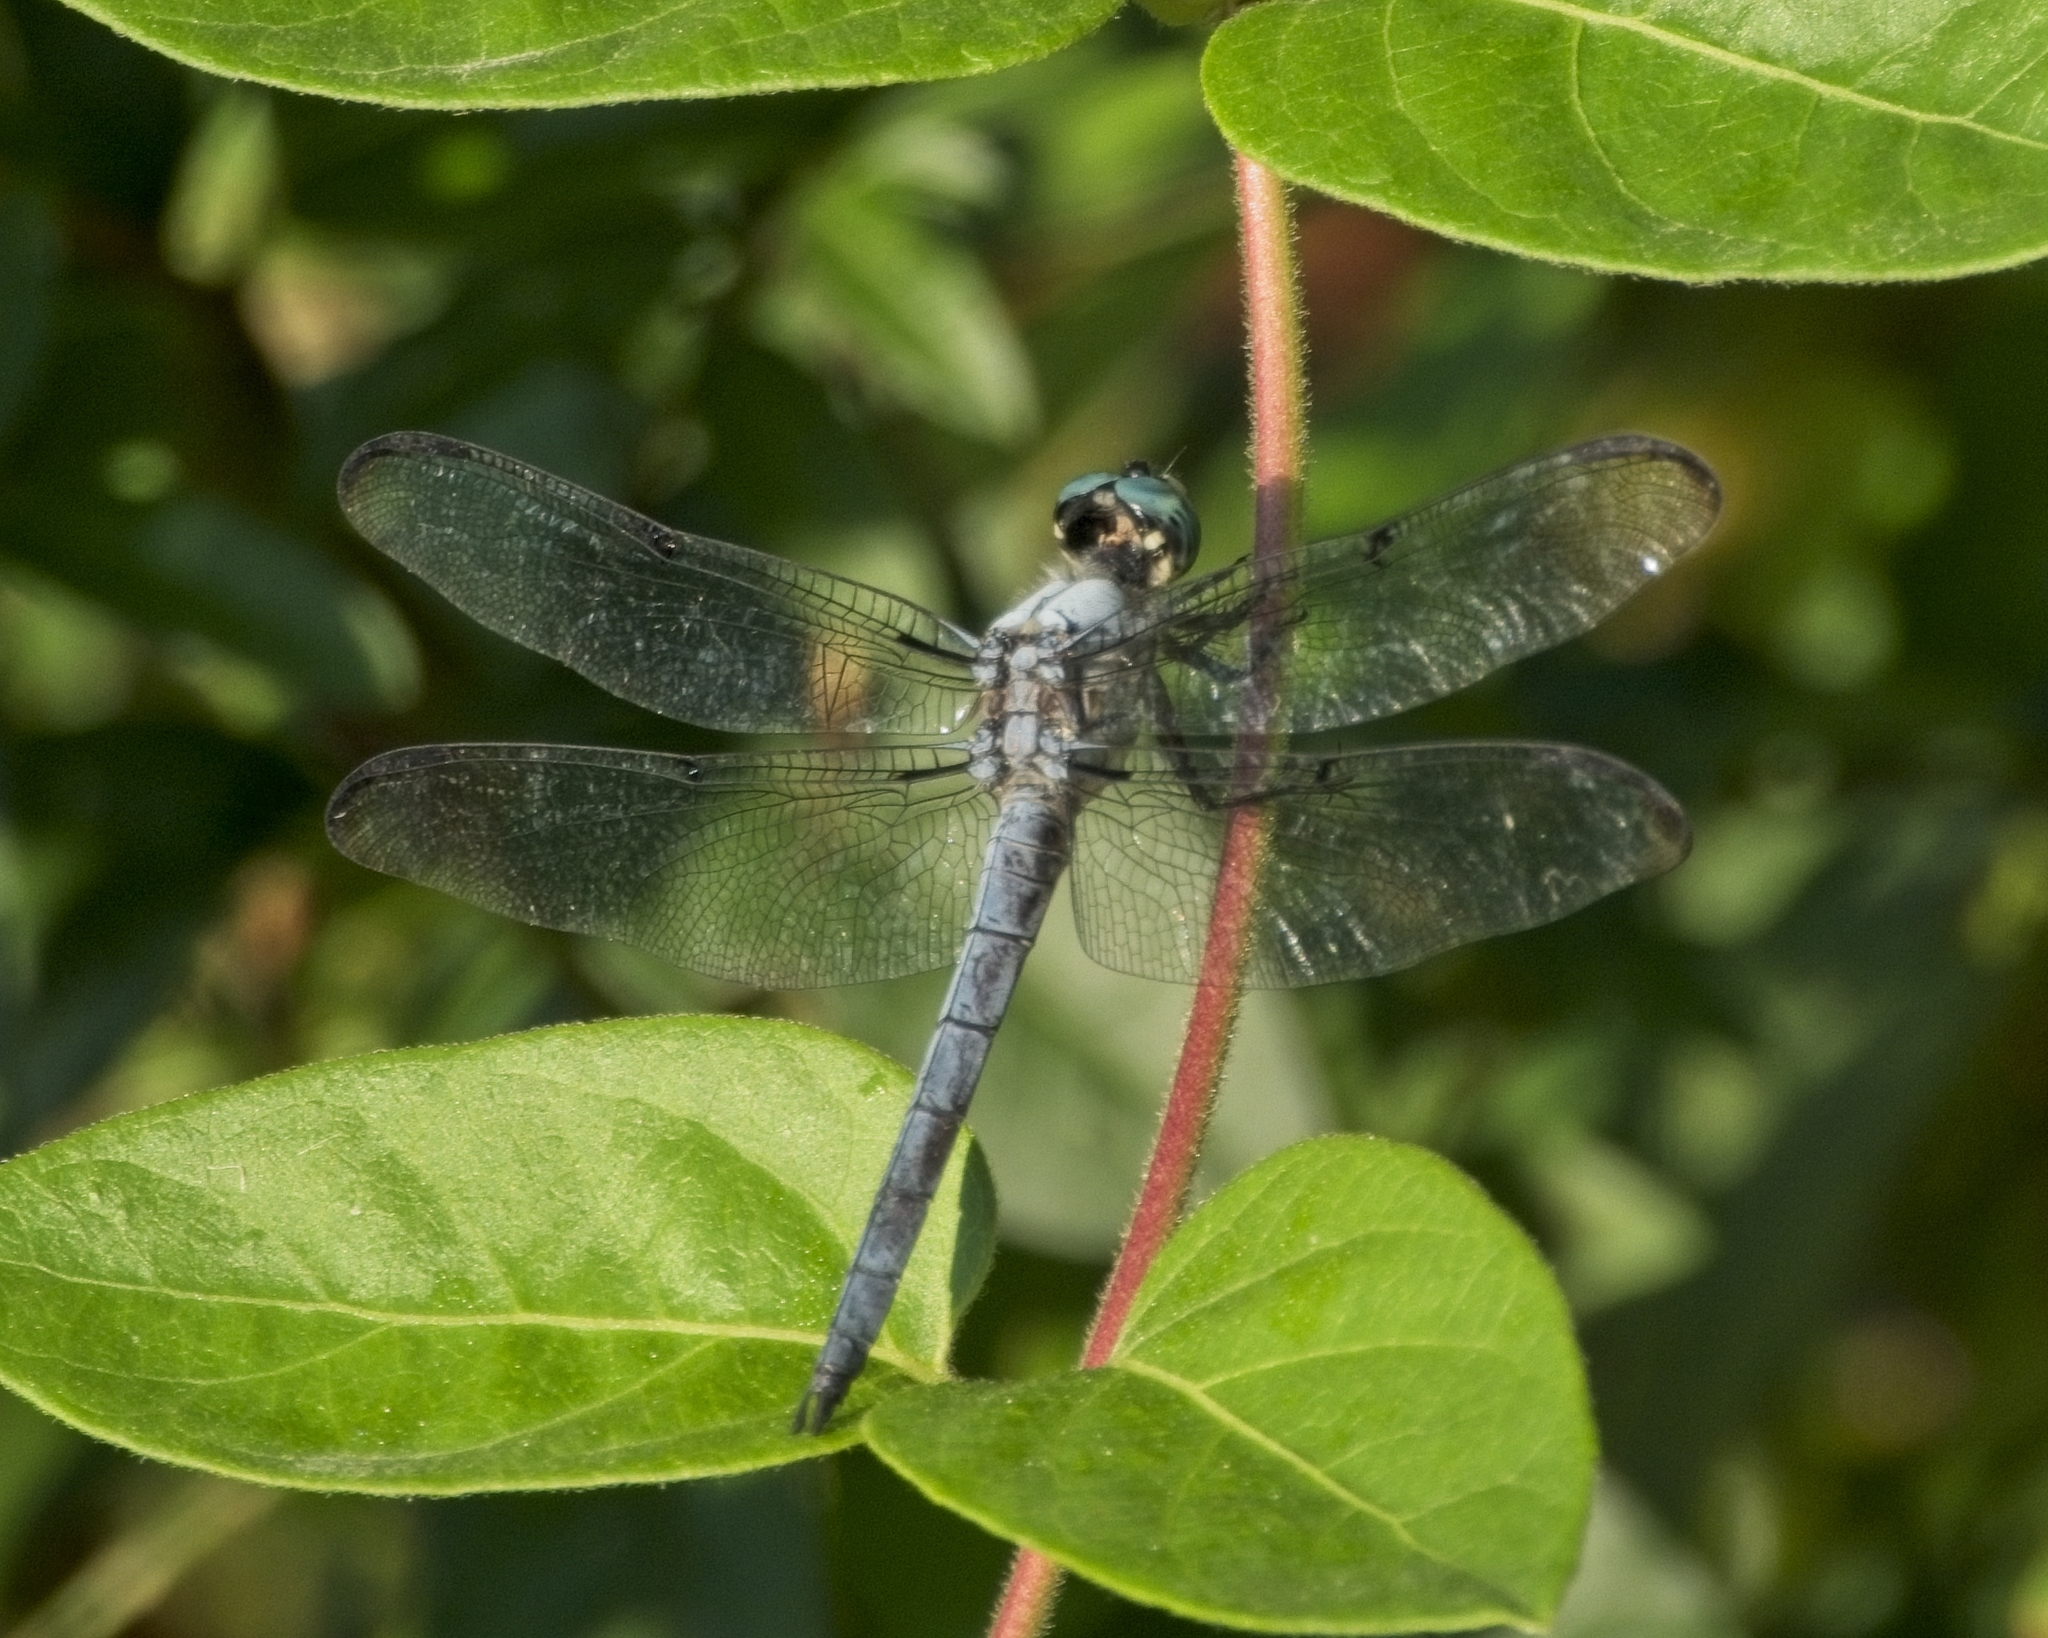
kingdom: Animalia
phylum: Arthropoda
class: Insecta
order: Odonata
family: Libellulidae
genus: Libellula
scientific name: Libellula vibrans
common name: Great blue skimmer
